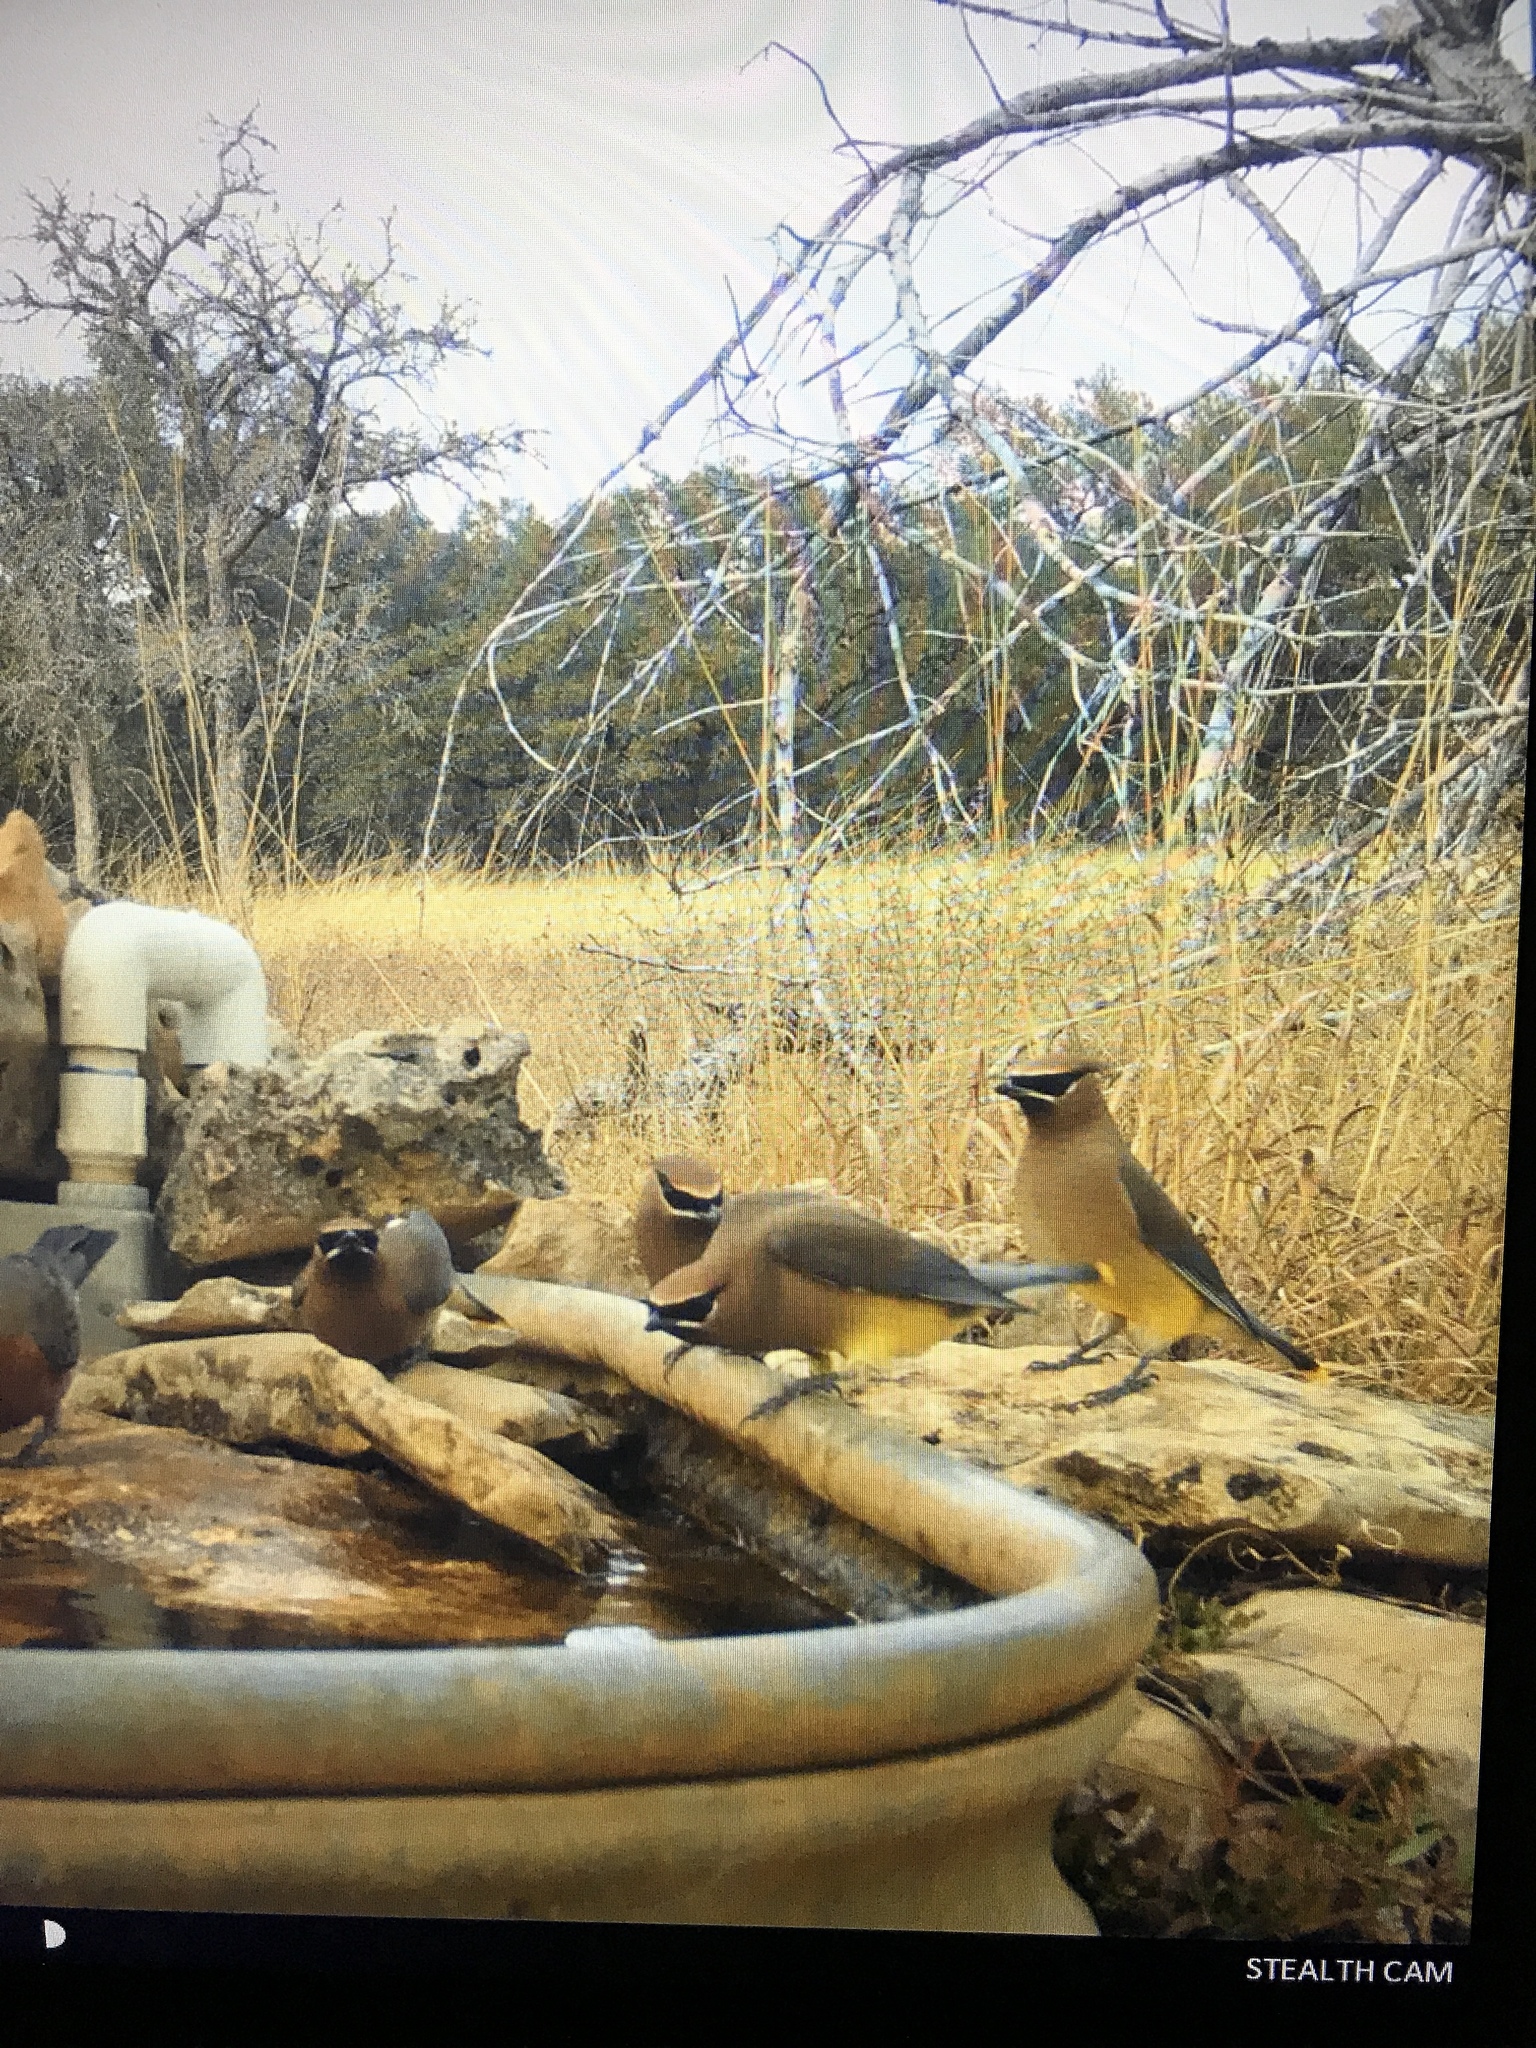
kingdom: Animalia
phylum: Chordata
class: Aves
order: Passeriformes
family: Bombycillidae
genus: Bombycilla
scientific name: Bombycilla cedrorum
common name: Cedar waxwing
